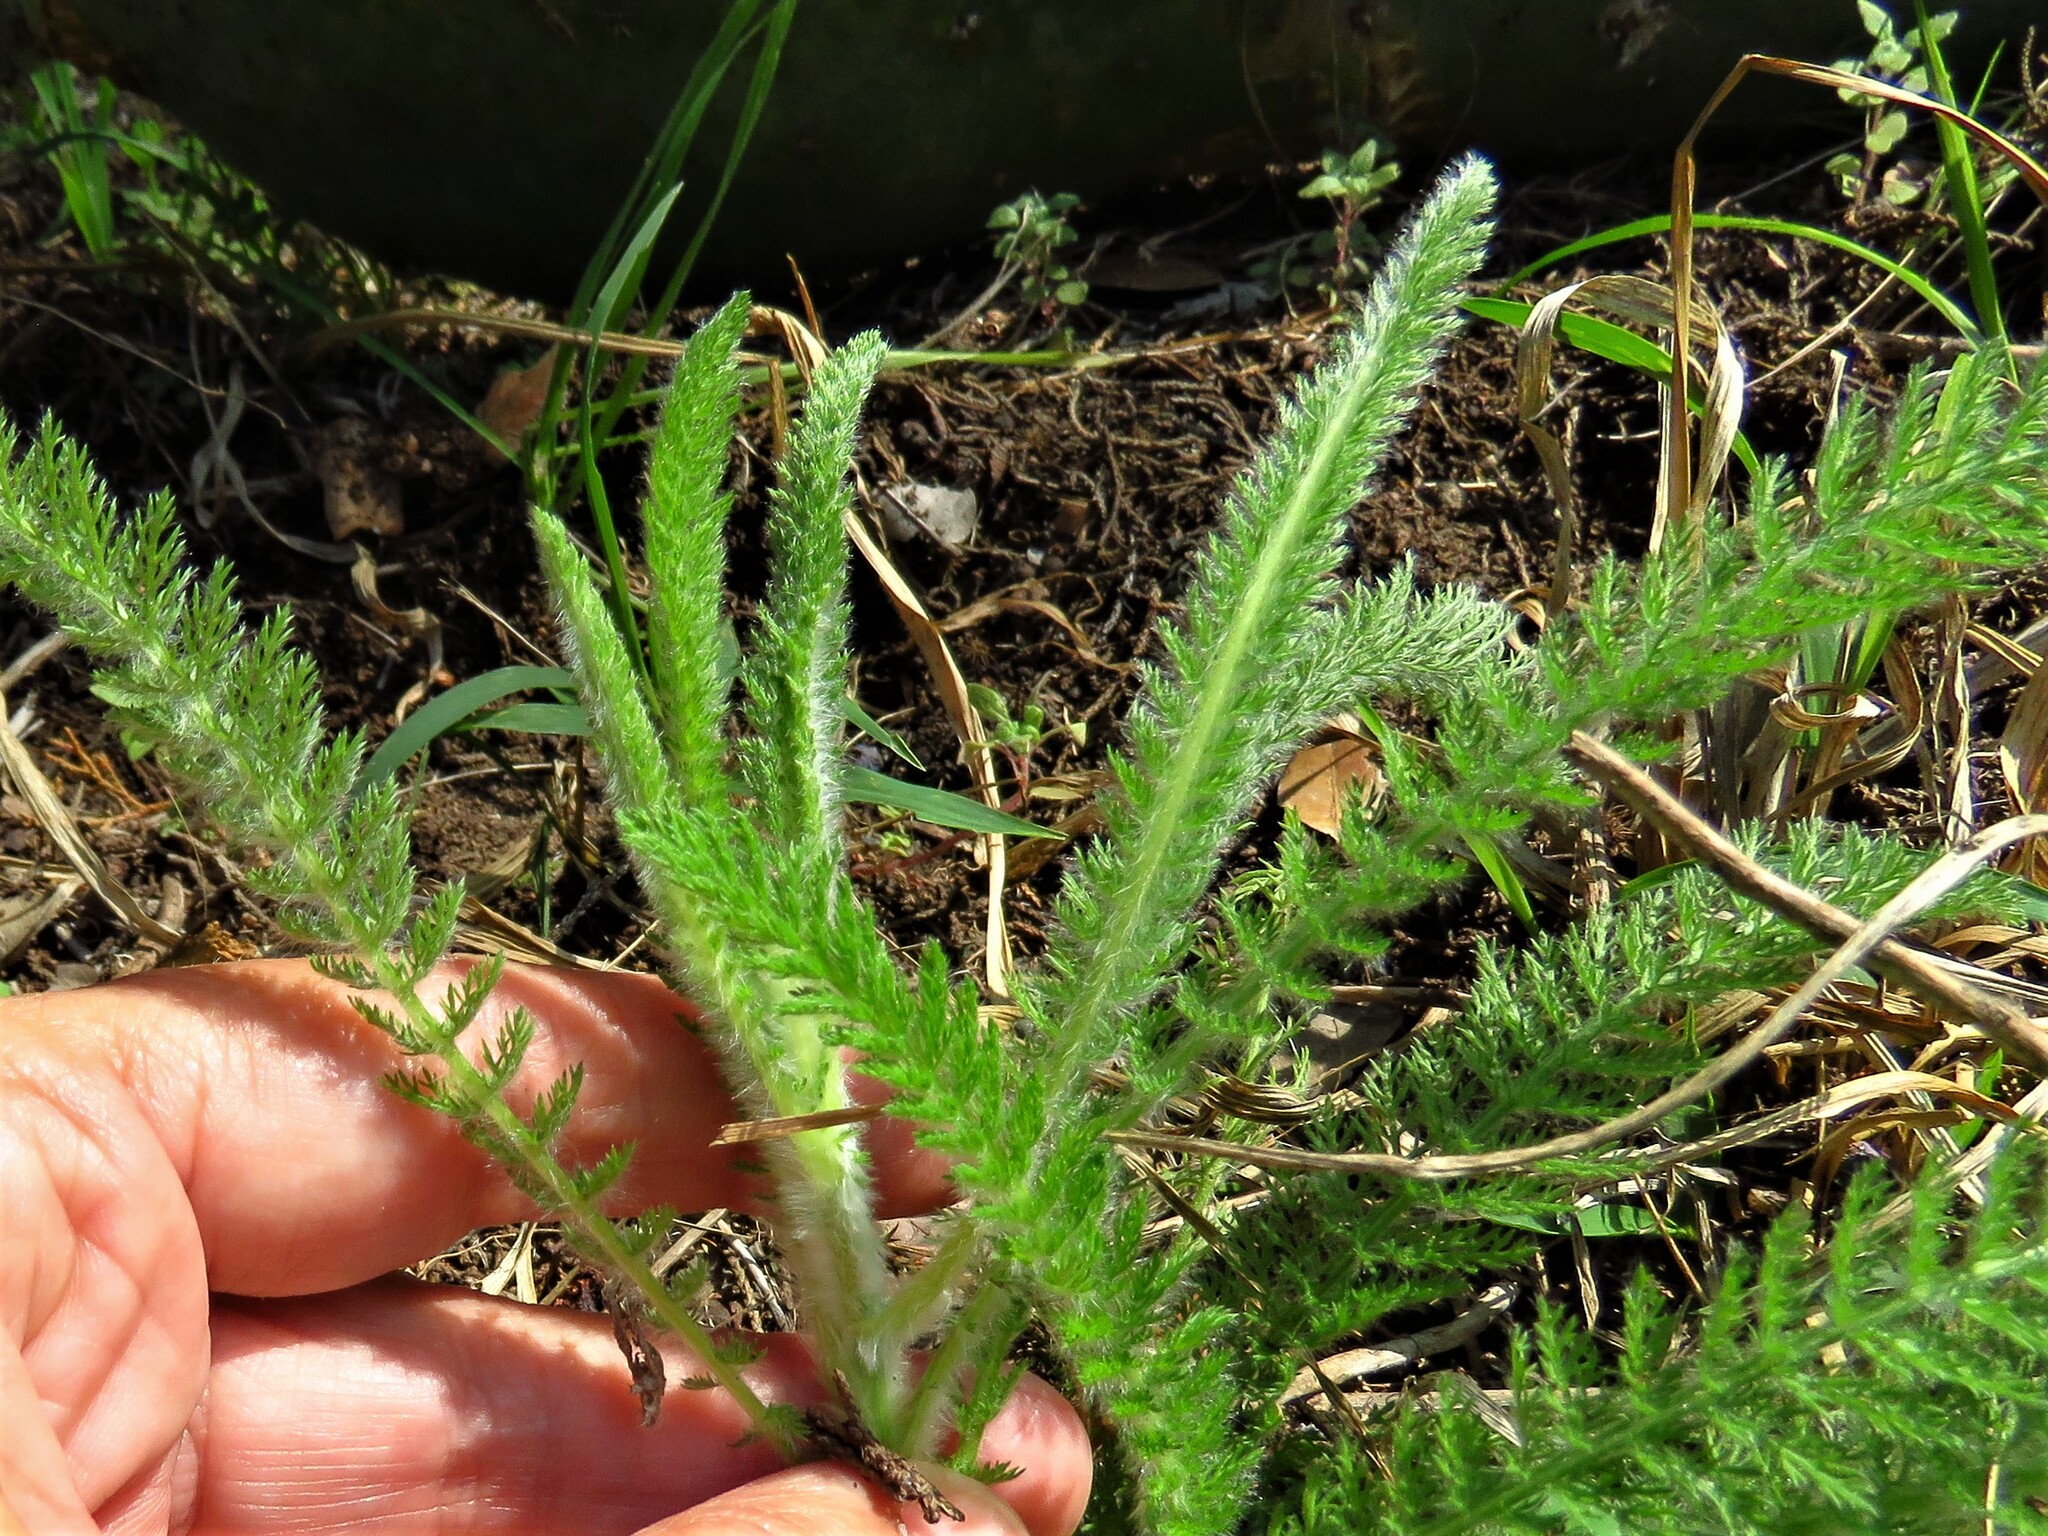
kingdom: Plantae
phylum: Tracheophyta
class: Magnoliopsida
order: Asterales
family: Asteraceae
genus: Achillea
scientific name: Achillea millefolium
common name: Yarrow
